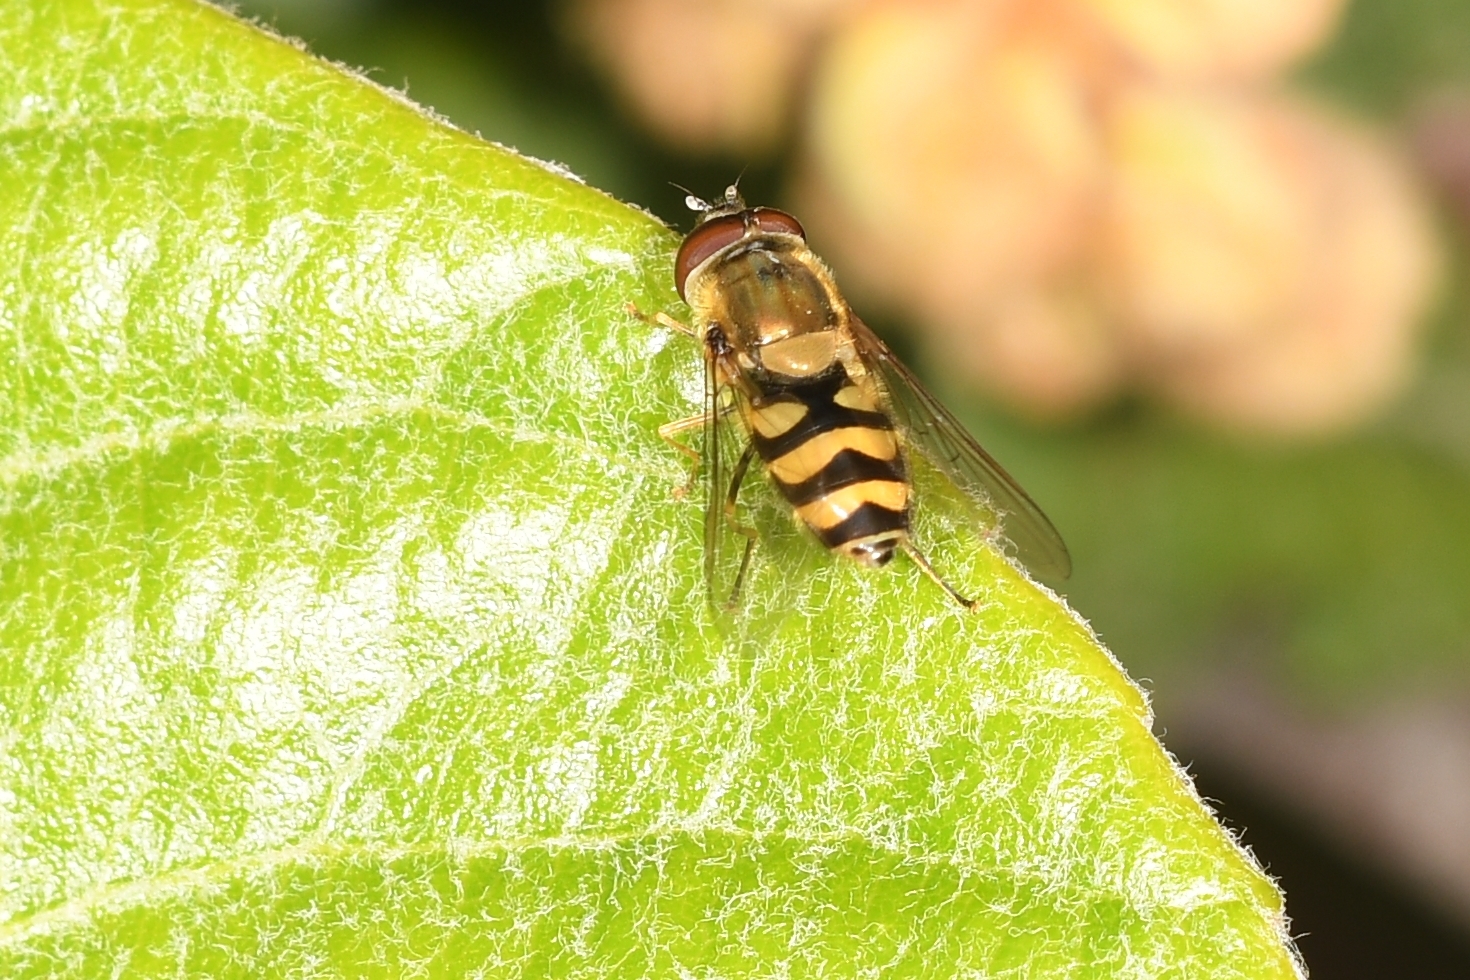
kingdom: Animalia
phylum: Arthropoda
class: Insecta
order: Diptera
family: Syrphidae
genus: Syrphus
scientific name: Syrphus
